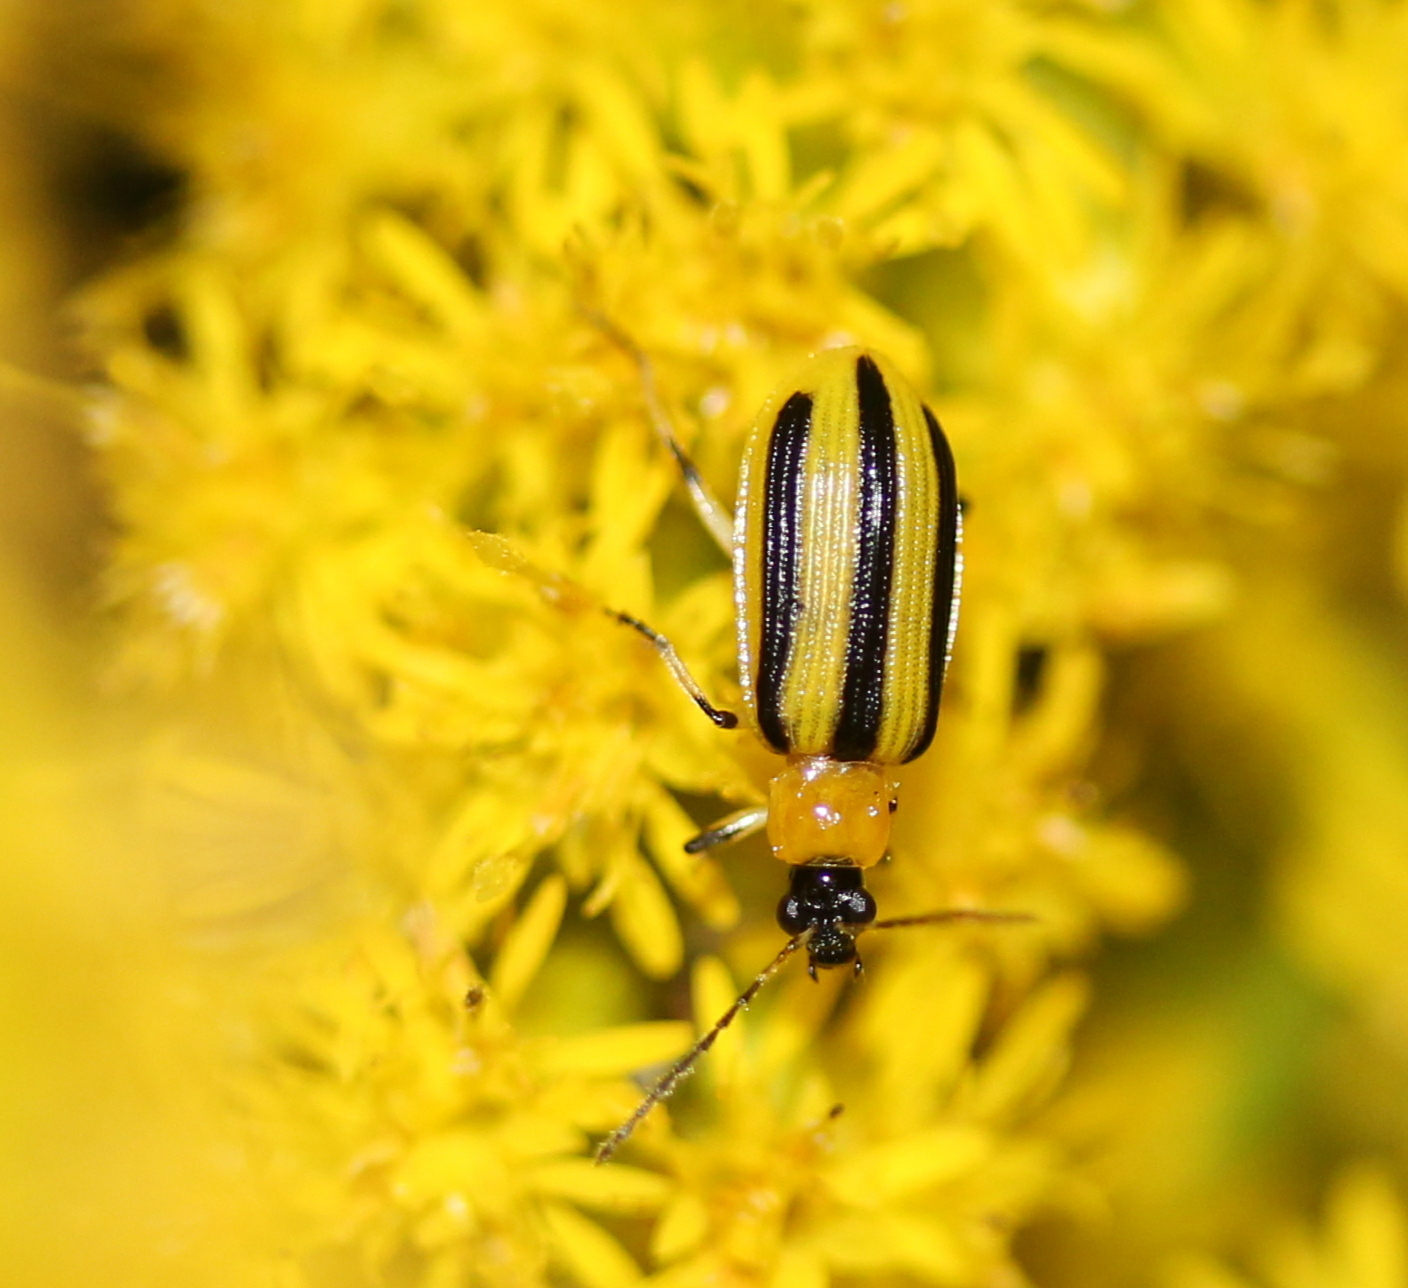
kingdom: Animalia
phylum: Arthropoda
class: Insecta
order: Coleoptera
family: Chrysomelidae
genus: Acalymma
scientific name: Acalymma vittatum
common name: Striped cucumber beetle
